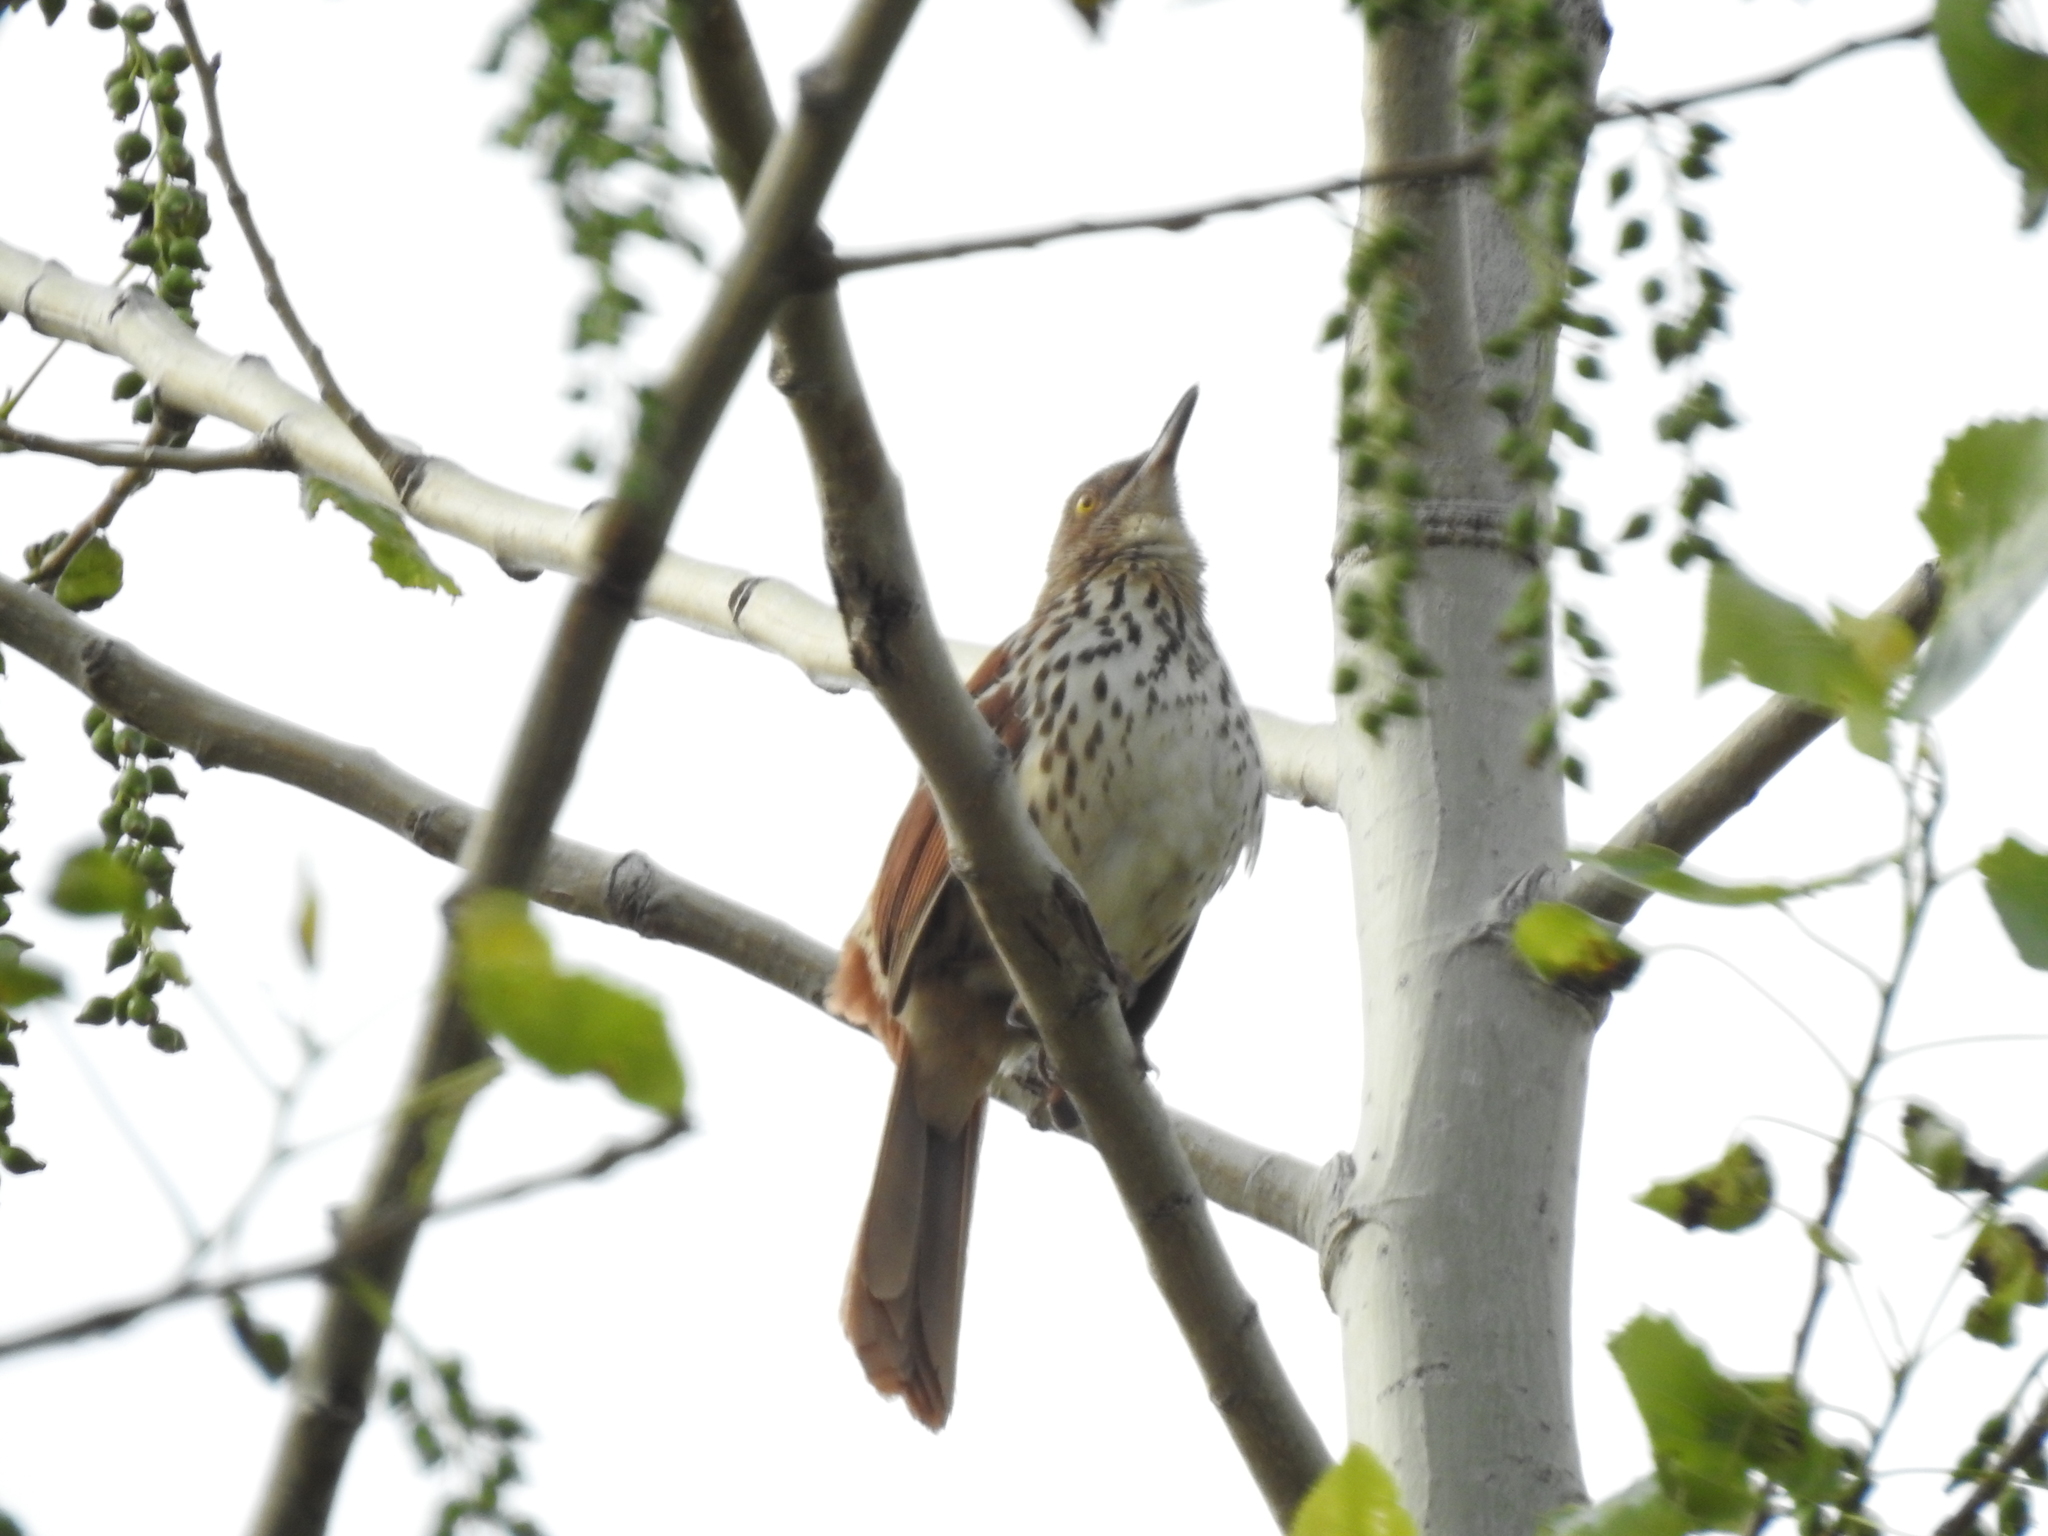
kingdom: Animalia
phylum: Chordata
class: Aves
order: Passeriformes
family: Mimidae
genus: Toxostoma
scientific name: Toxostoma rufum
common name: Brown thrasher
